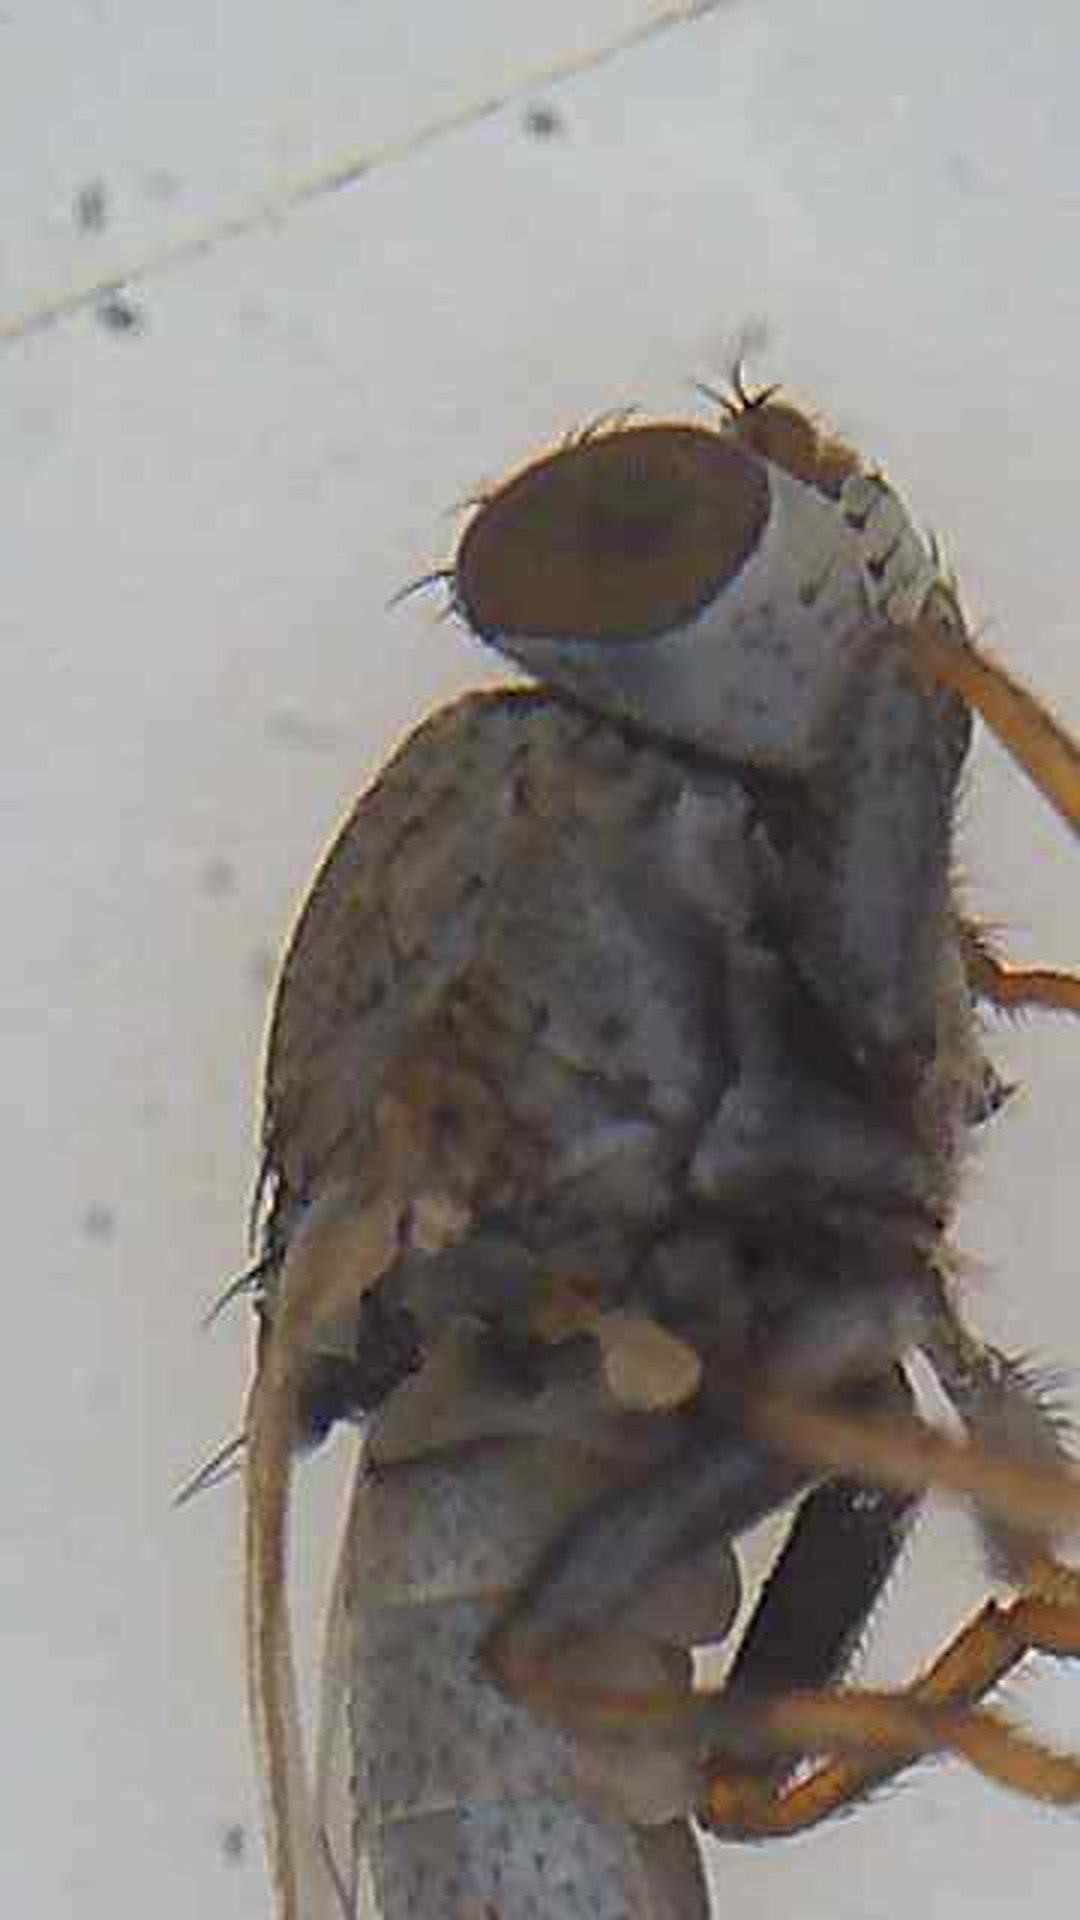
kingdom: Animalia
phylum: Arthropoda
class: Insecta
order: Diptera
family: Ephydridae
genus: Hecamede
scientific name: Hecamede granifera
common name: Shore fly
